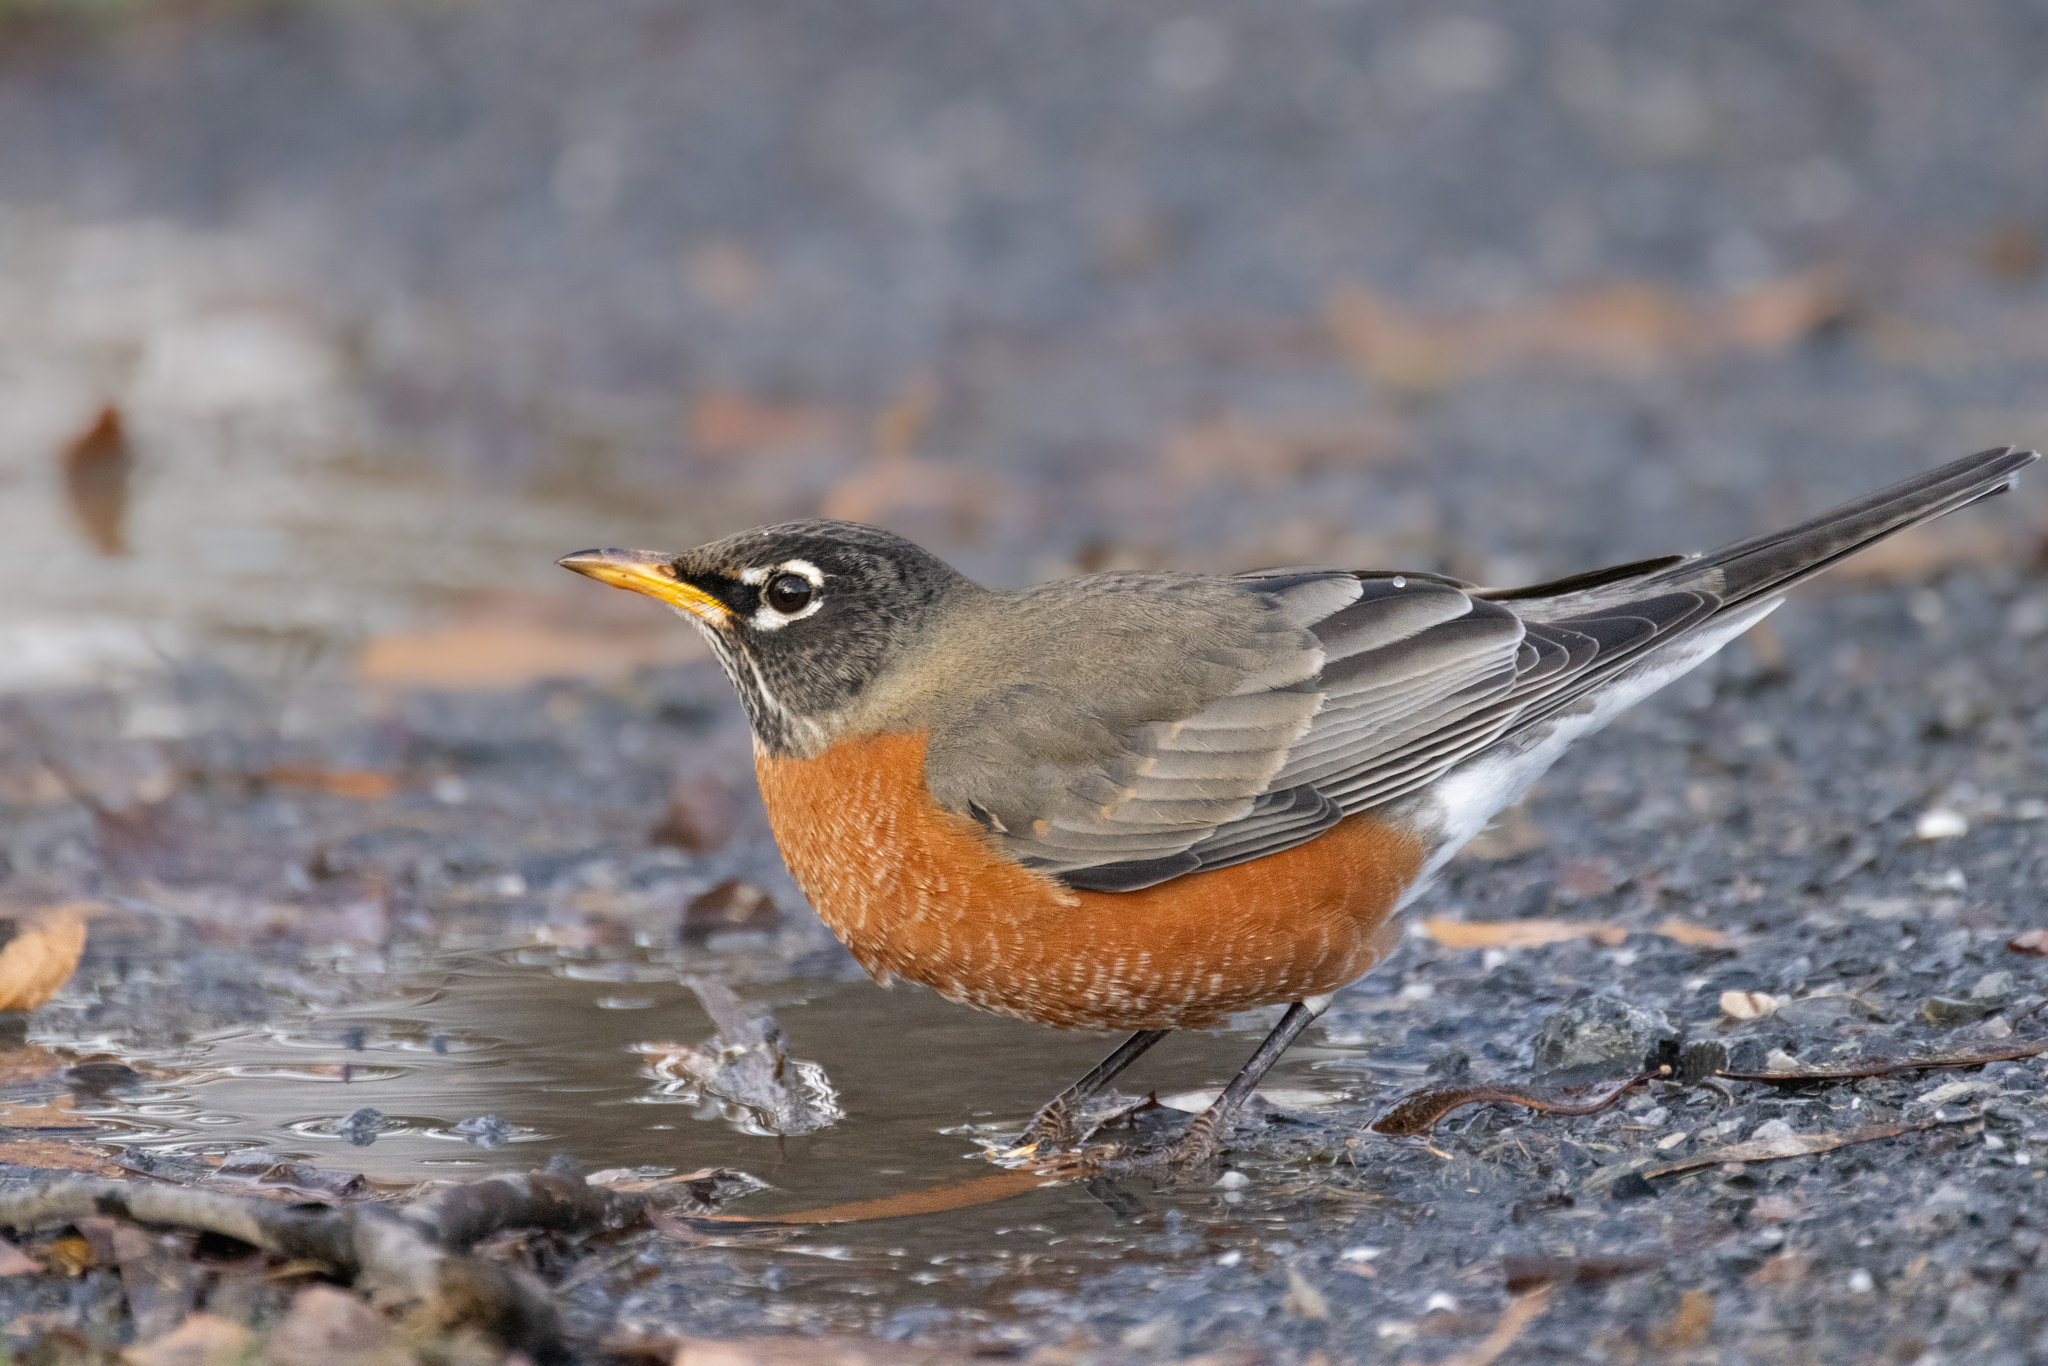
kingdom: Animalia
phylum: Chordata
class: Aves
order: Passeriformes
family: Turdidae
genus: Turdus
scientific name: Turdus migratorius
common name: American robin
